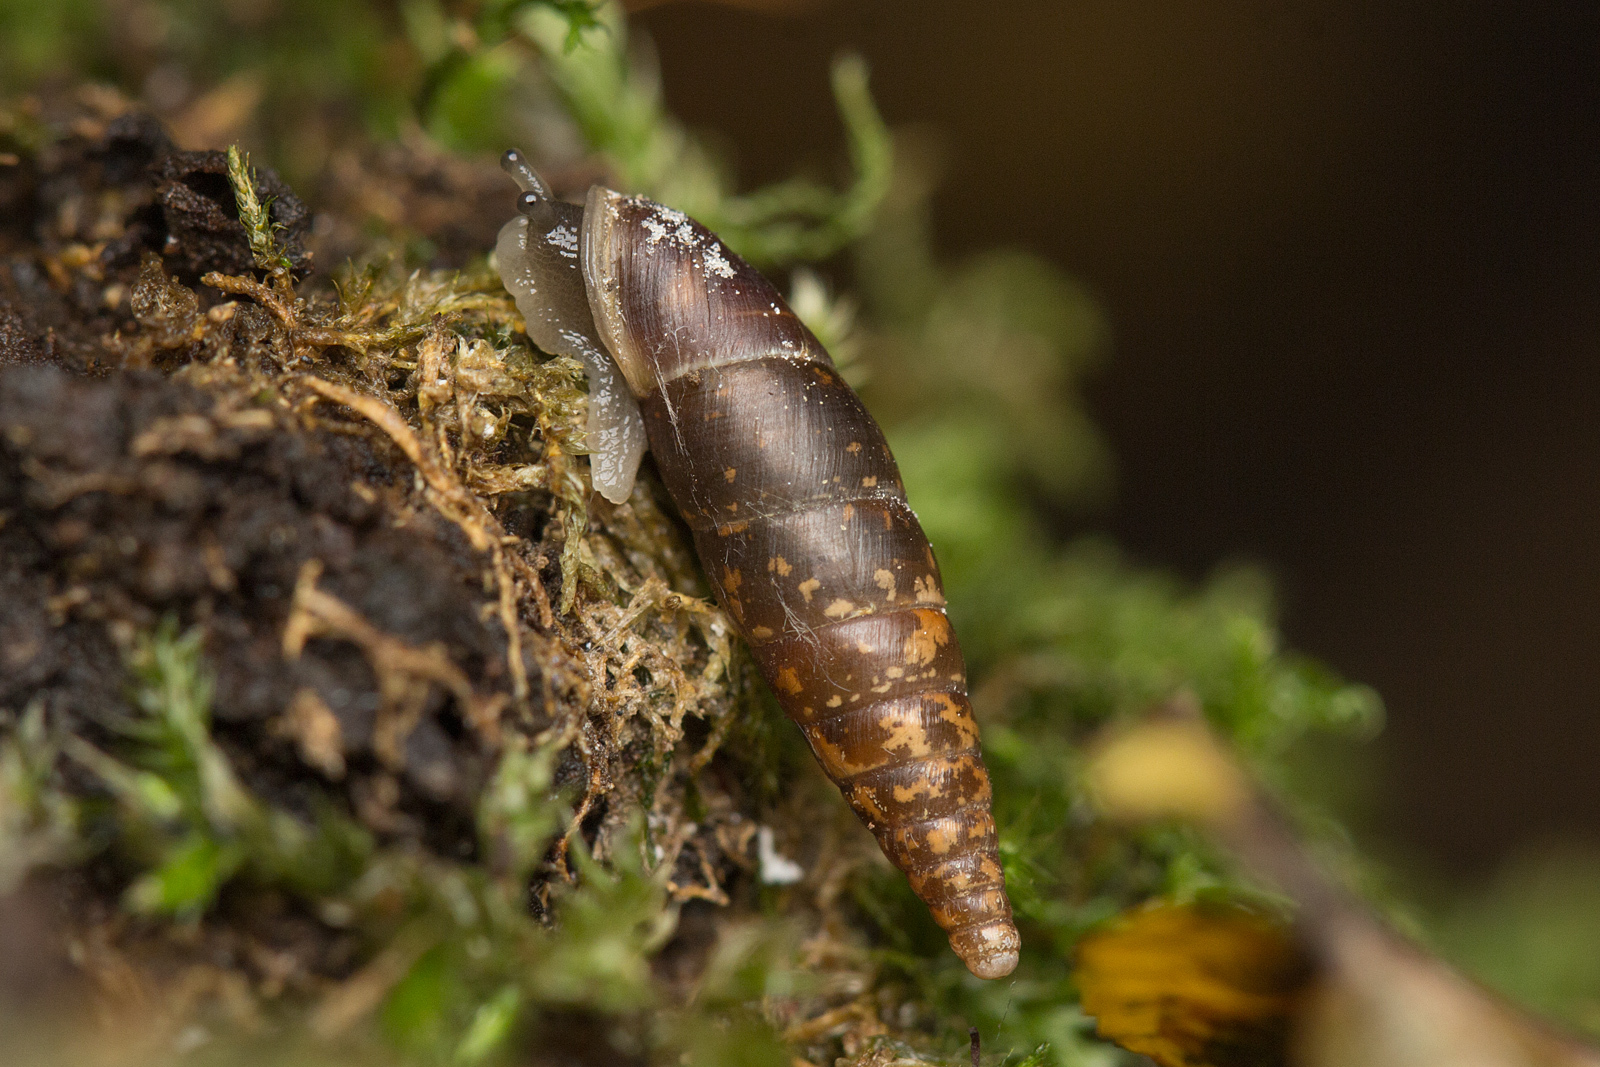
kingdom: Animalia
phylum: Mollusca
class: Gastropoda
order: Stylommatophora
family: Clausiliidae
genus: Cochlodina
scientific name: Cochlodina laminata
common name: Plaited door snail
